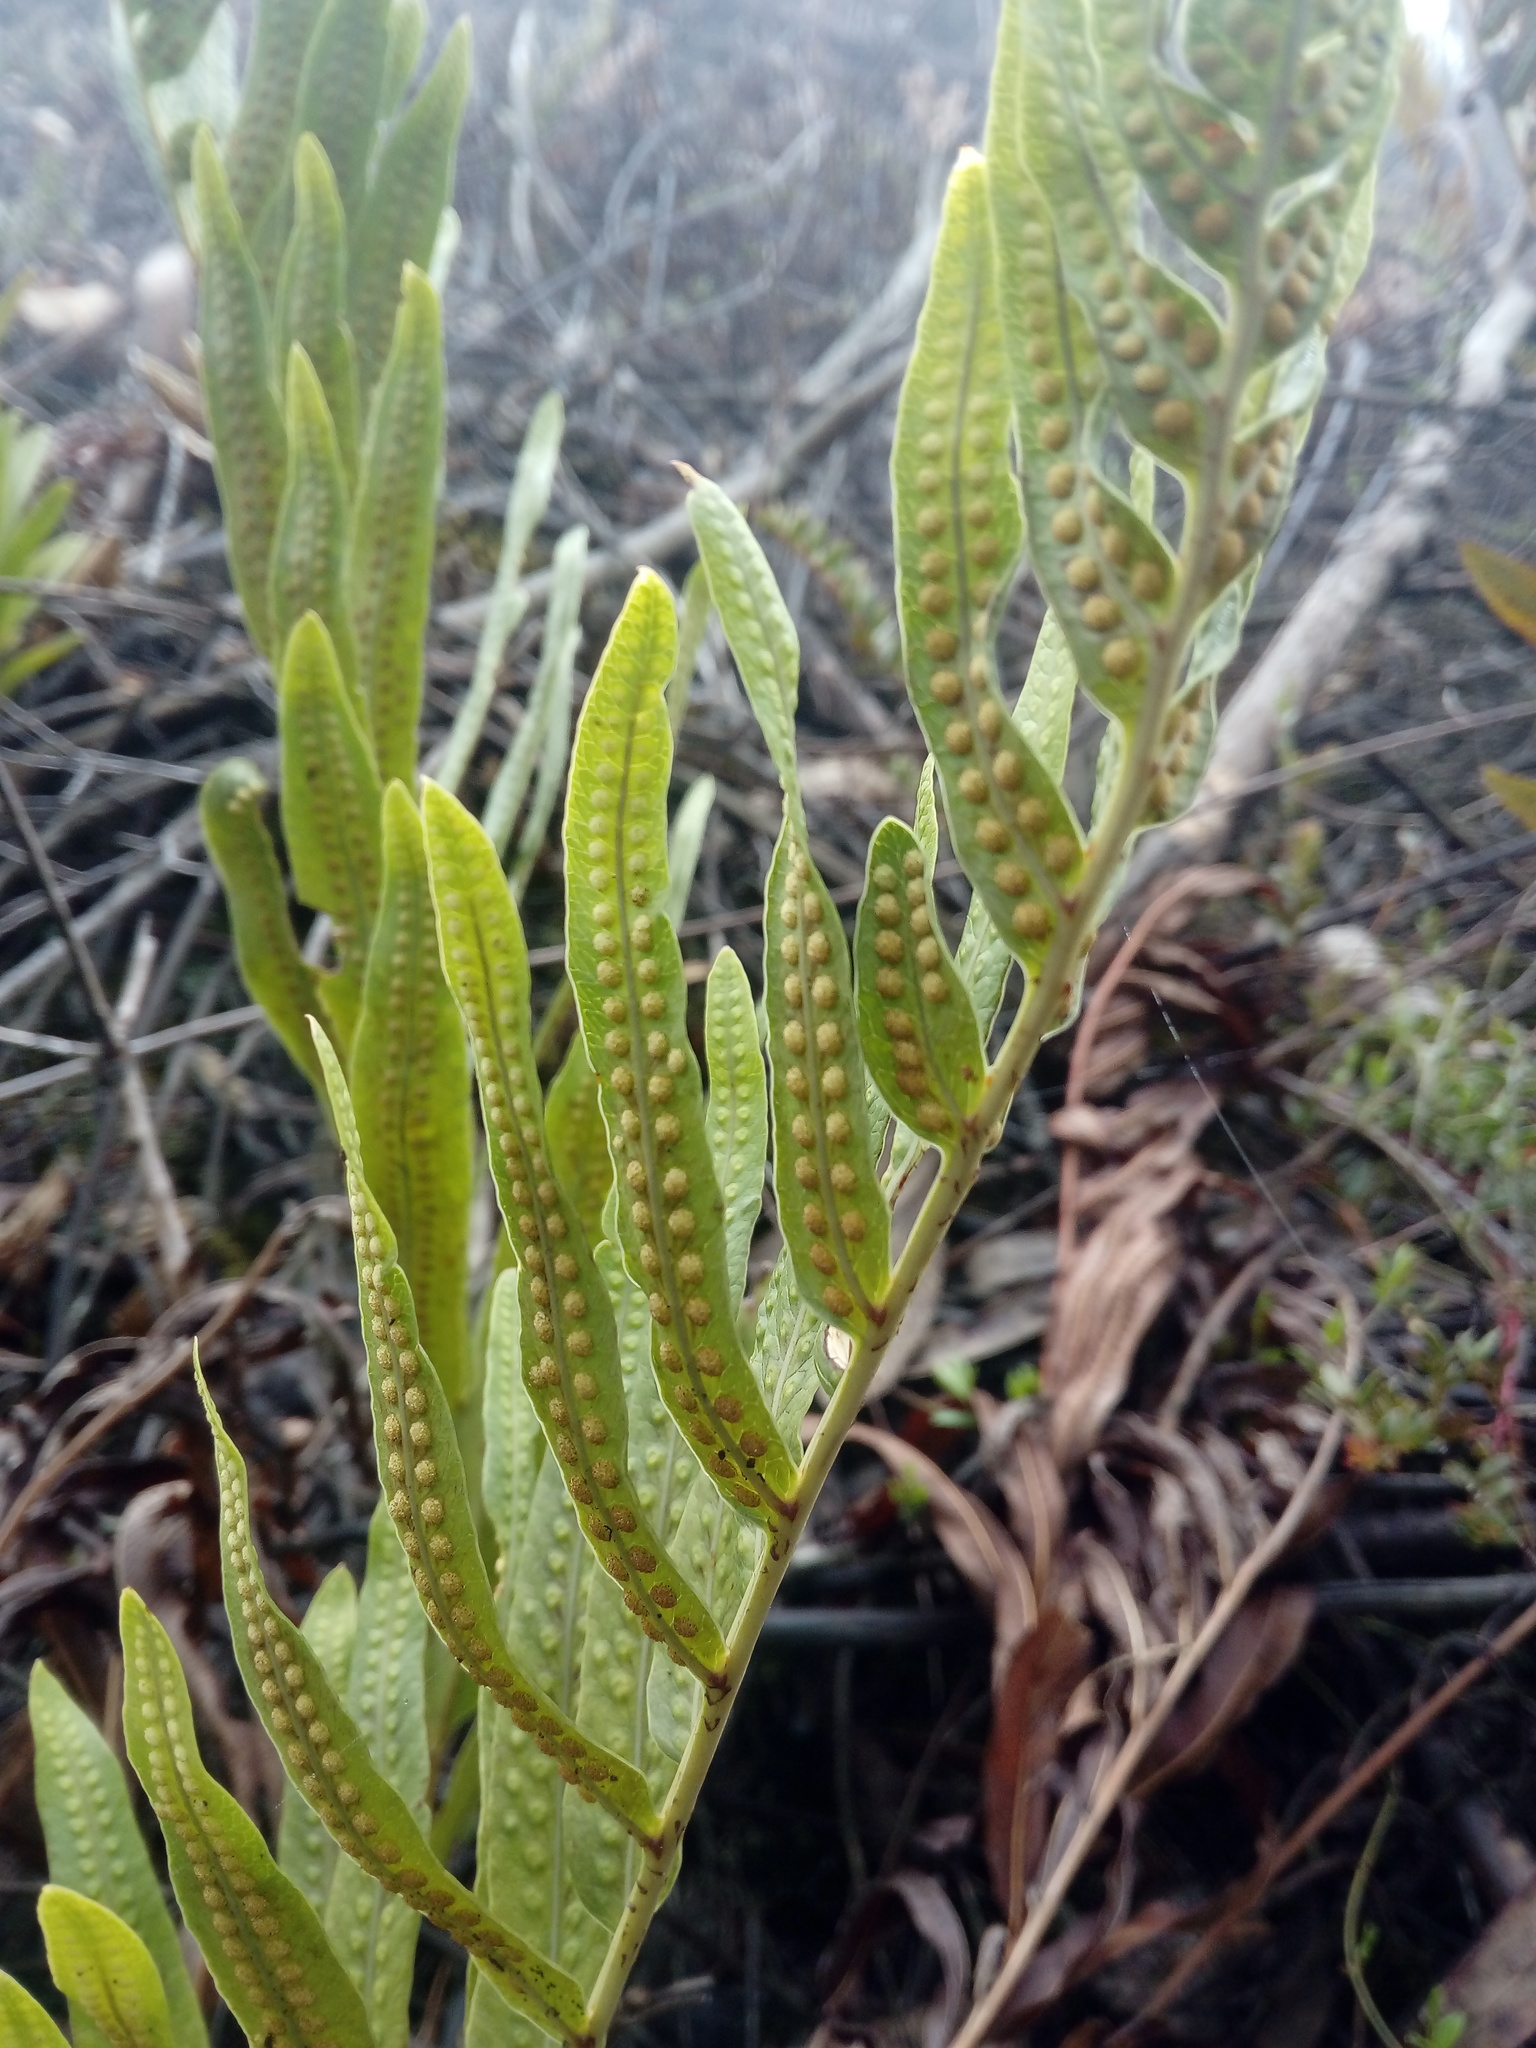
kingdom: Plantae
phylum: Tracheophyta
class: Polypodiopsida
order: Polypodiales
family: Polypodiaceae
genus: Serpocaulon
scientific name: Serpocaulon sessilifolium
